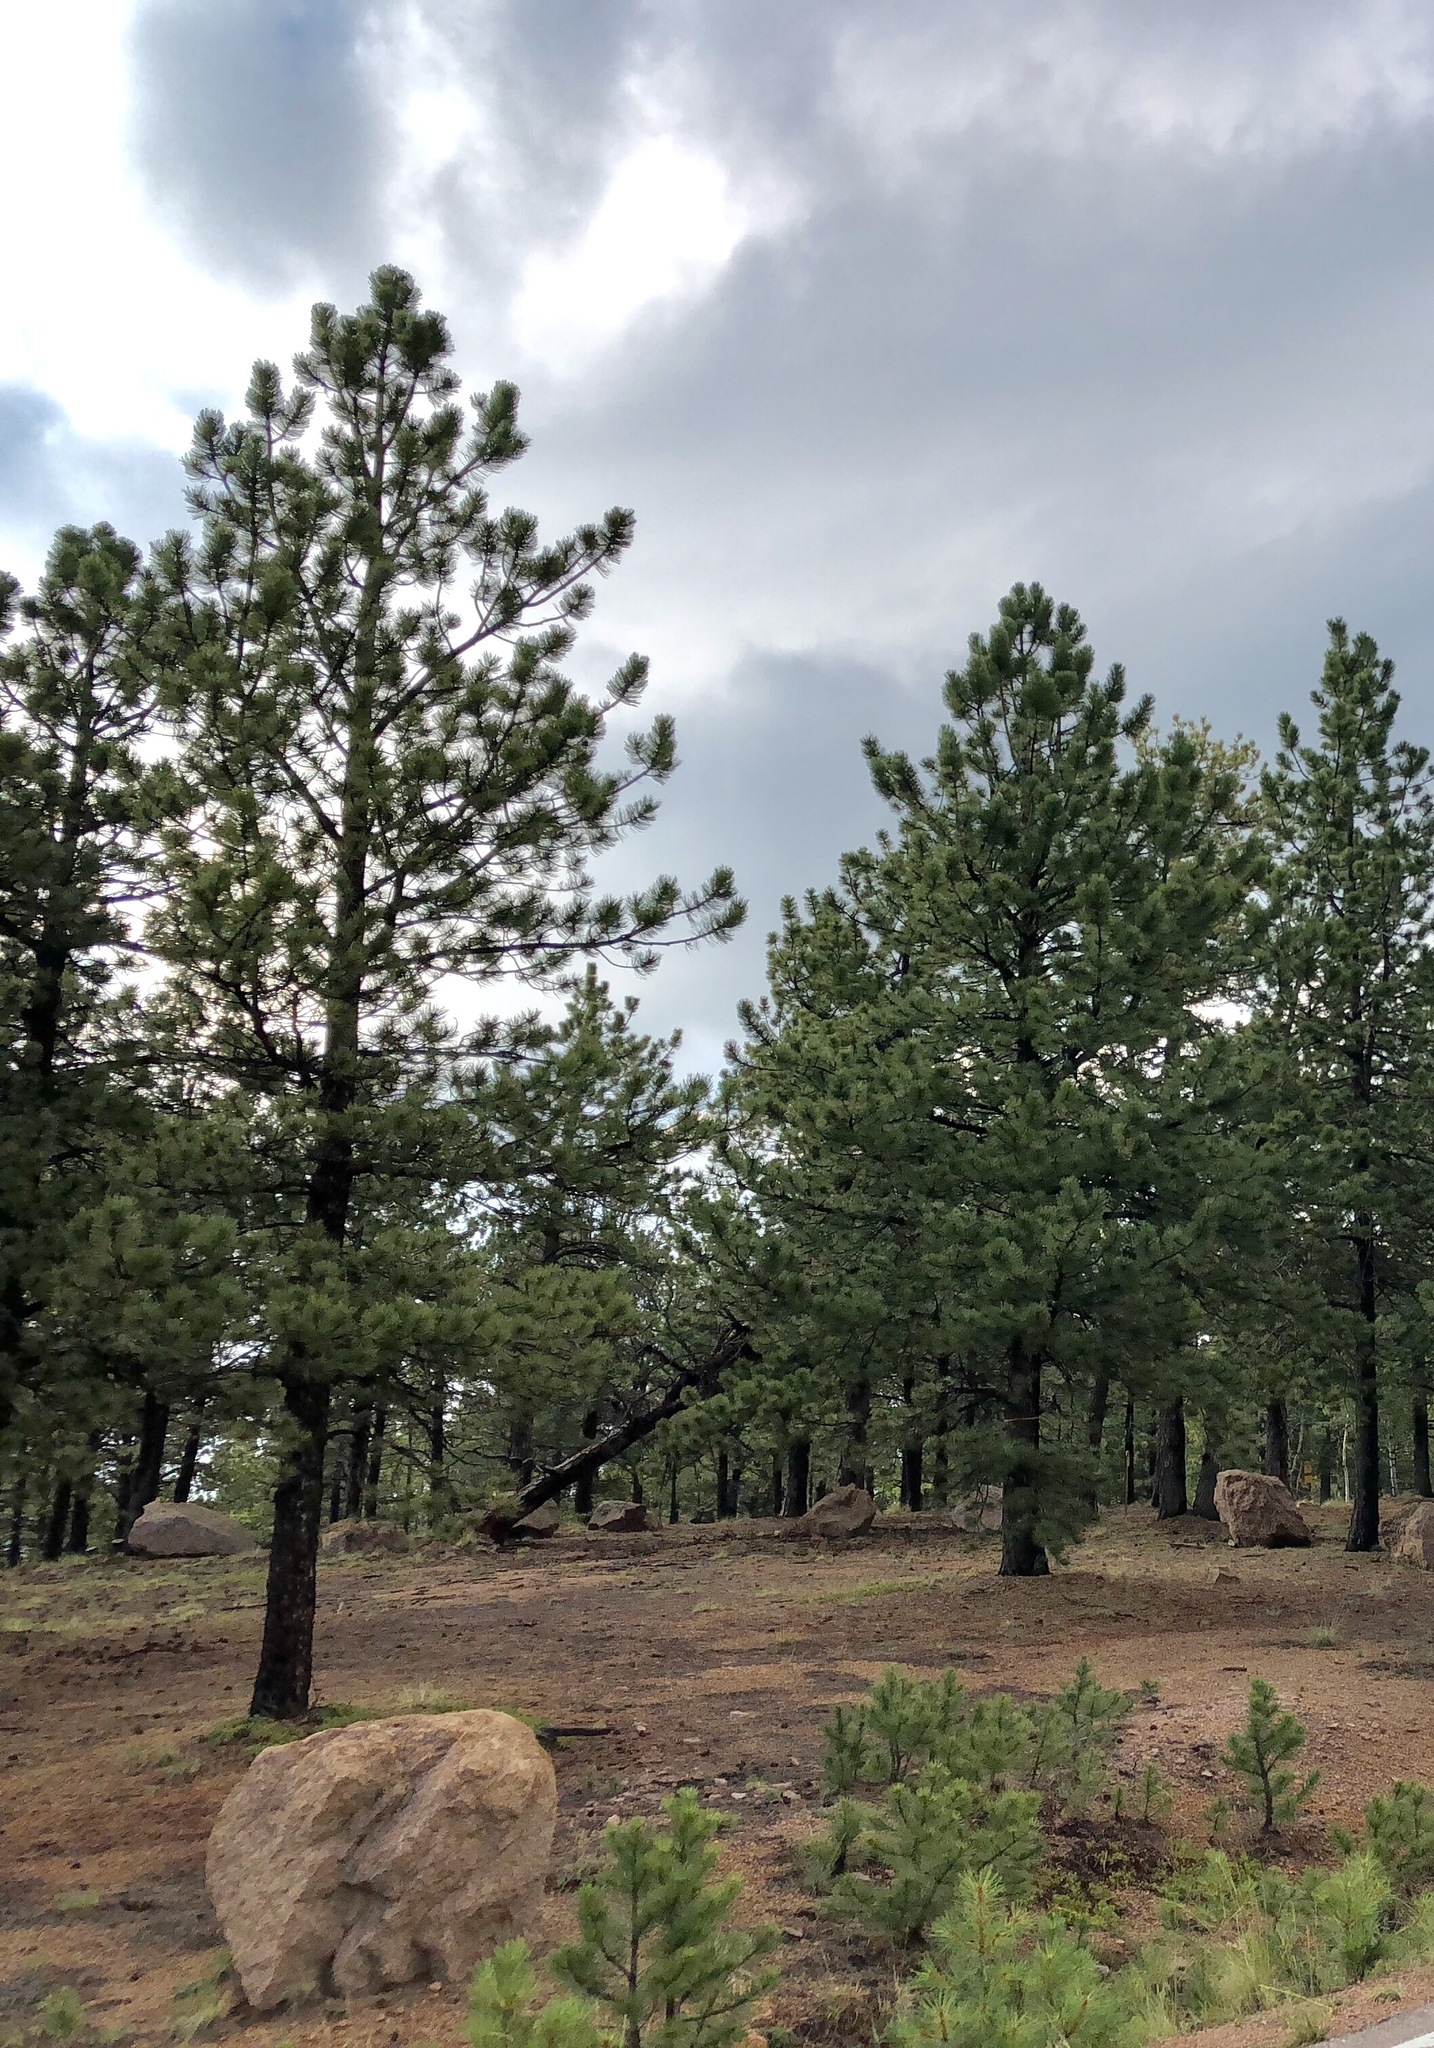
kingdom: Plantae
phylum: Tracheophyta
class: Pinopsida
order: Pinales
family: Pinaceae
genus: Pinus
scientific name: Pinus ponderosa
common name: Western yellow-pine
